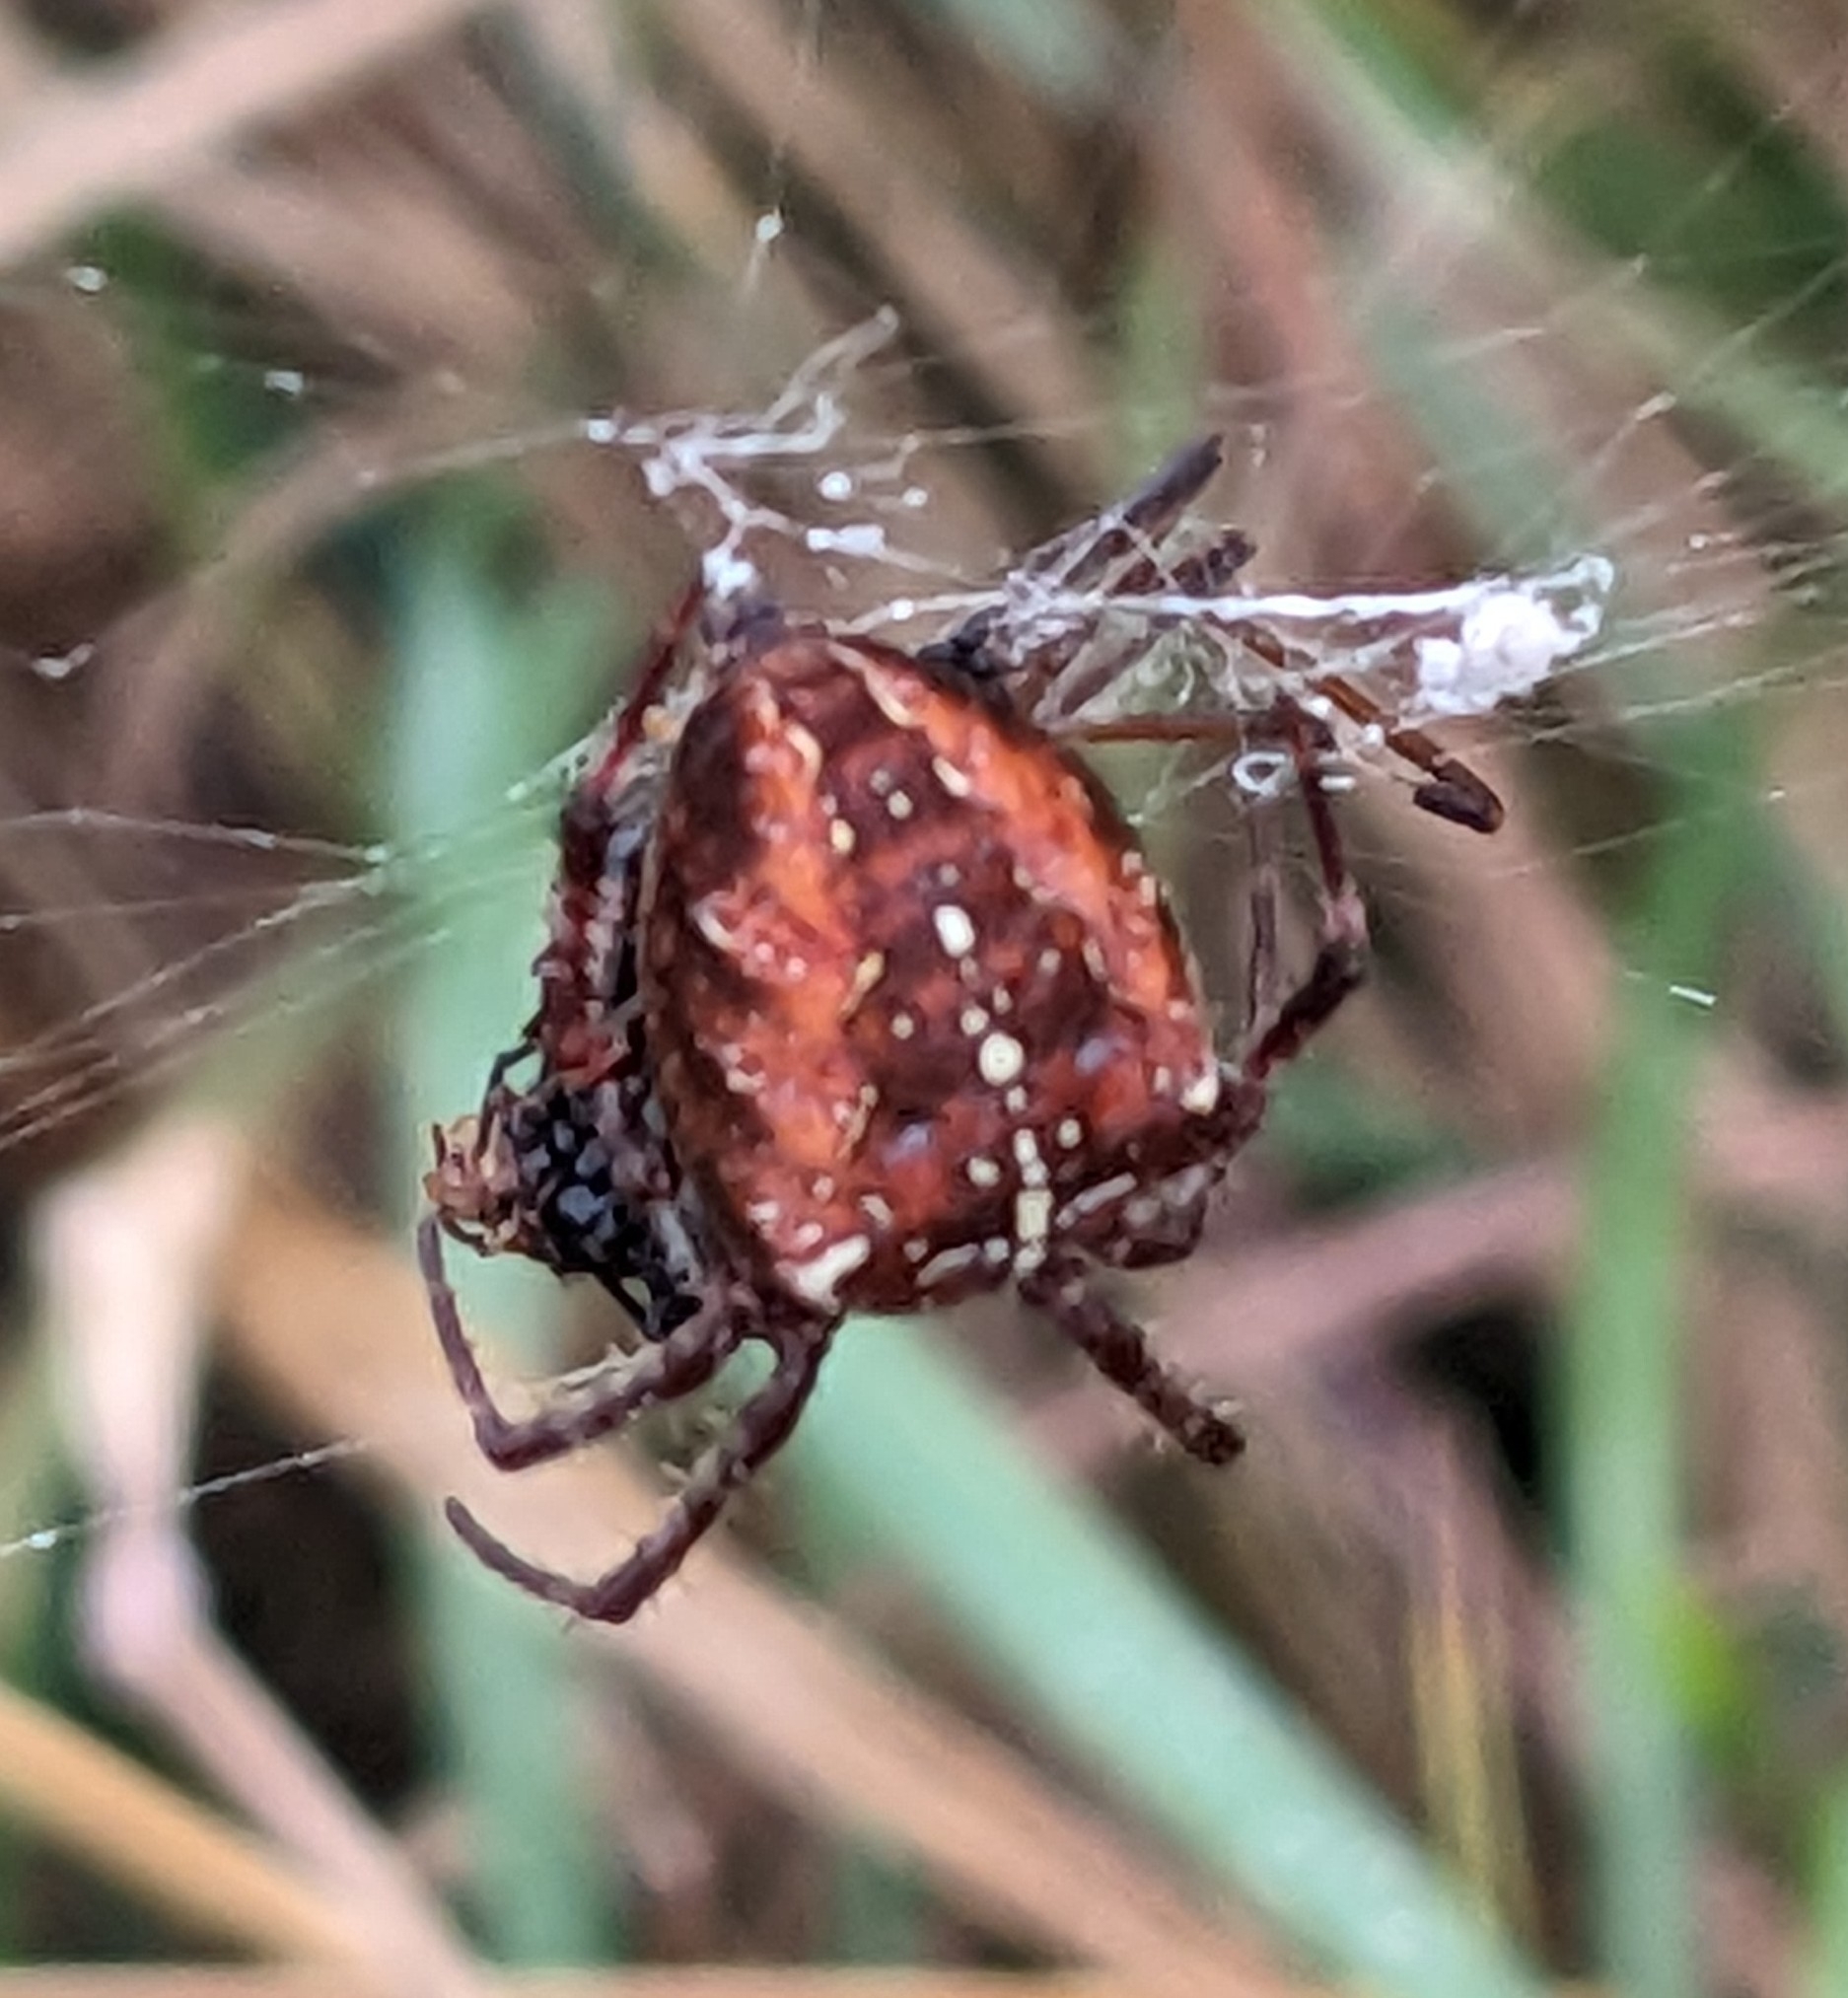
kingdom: Animalia
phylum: Arthropoda
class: Arachnida
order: Araneae
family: Araneidae
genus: Araneus
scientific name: Araneus diadematus
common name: Cross orbweaver
